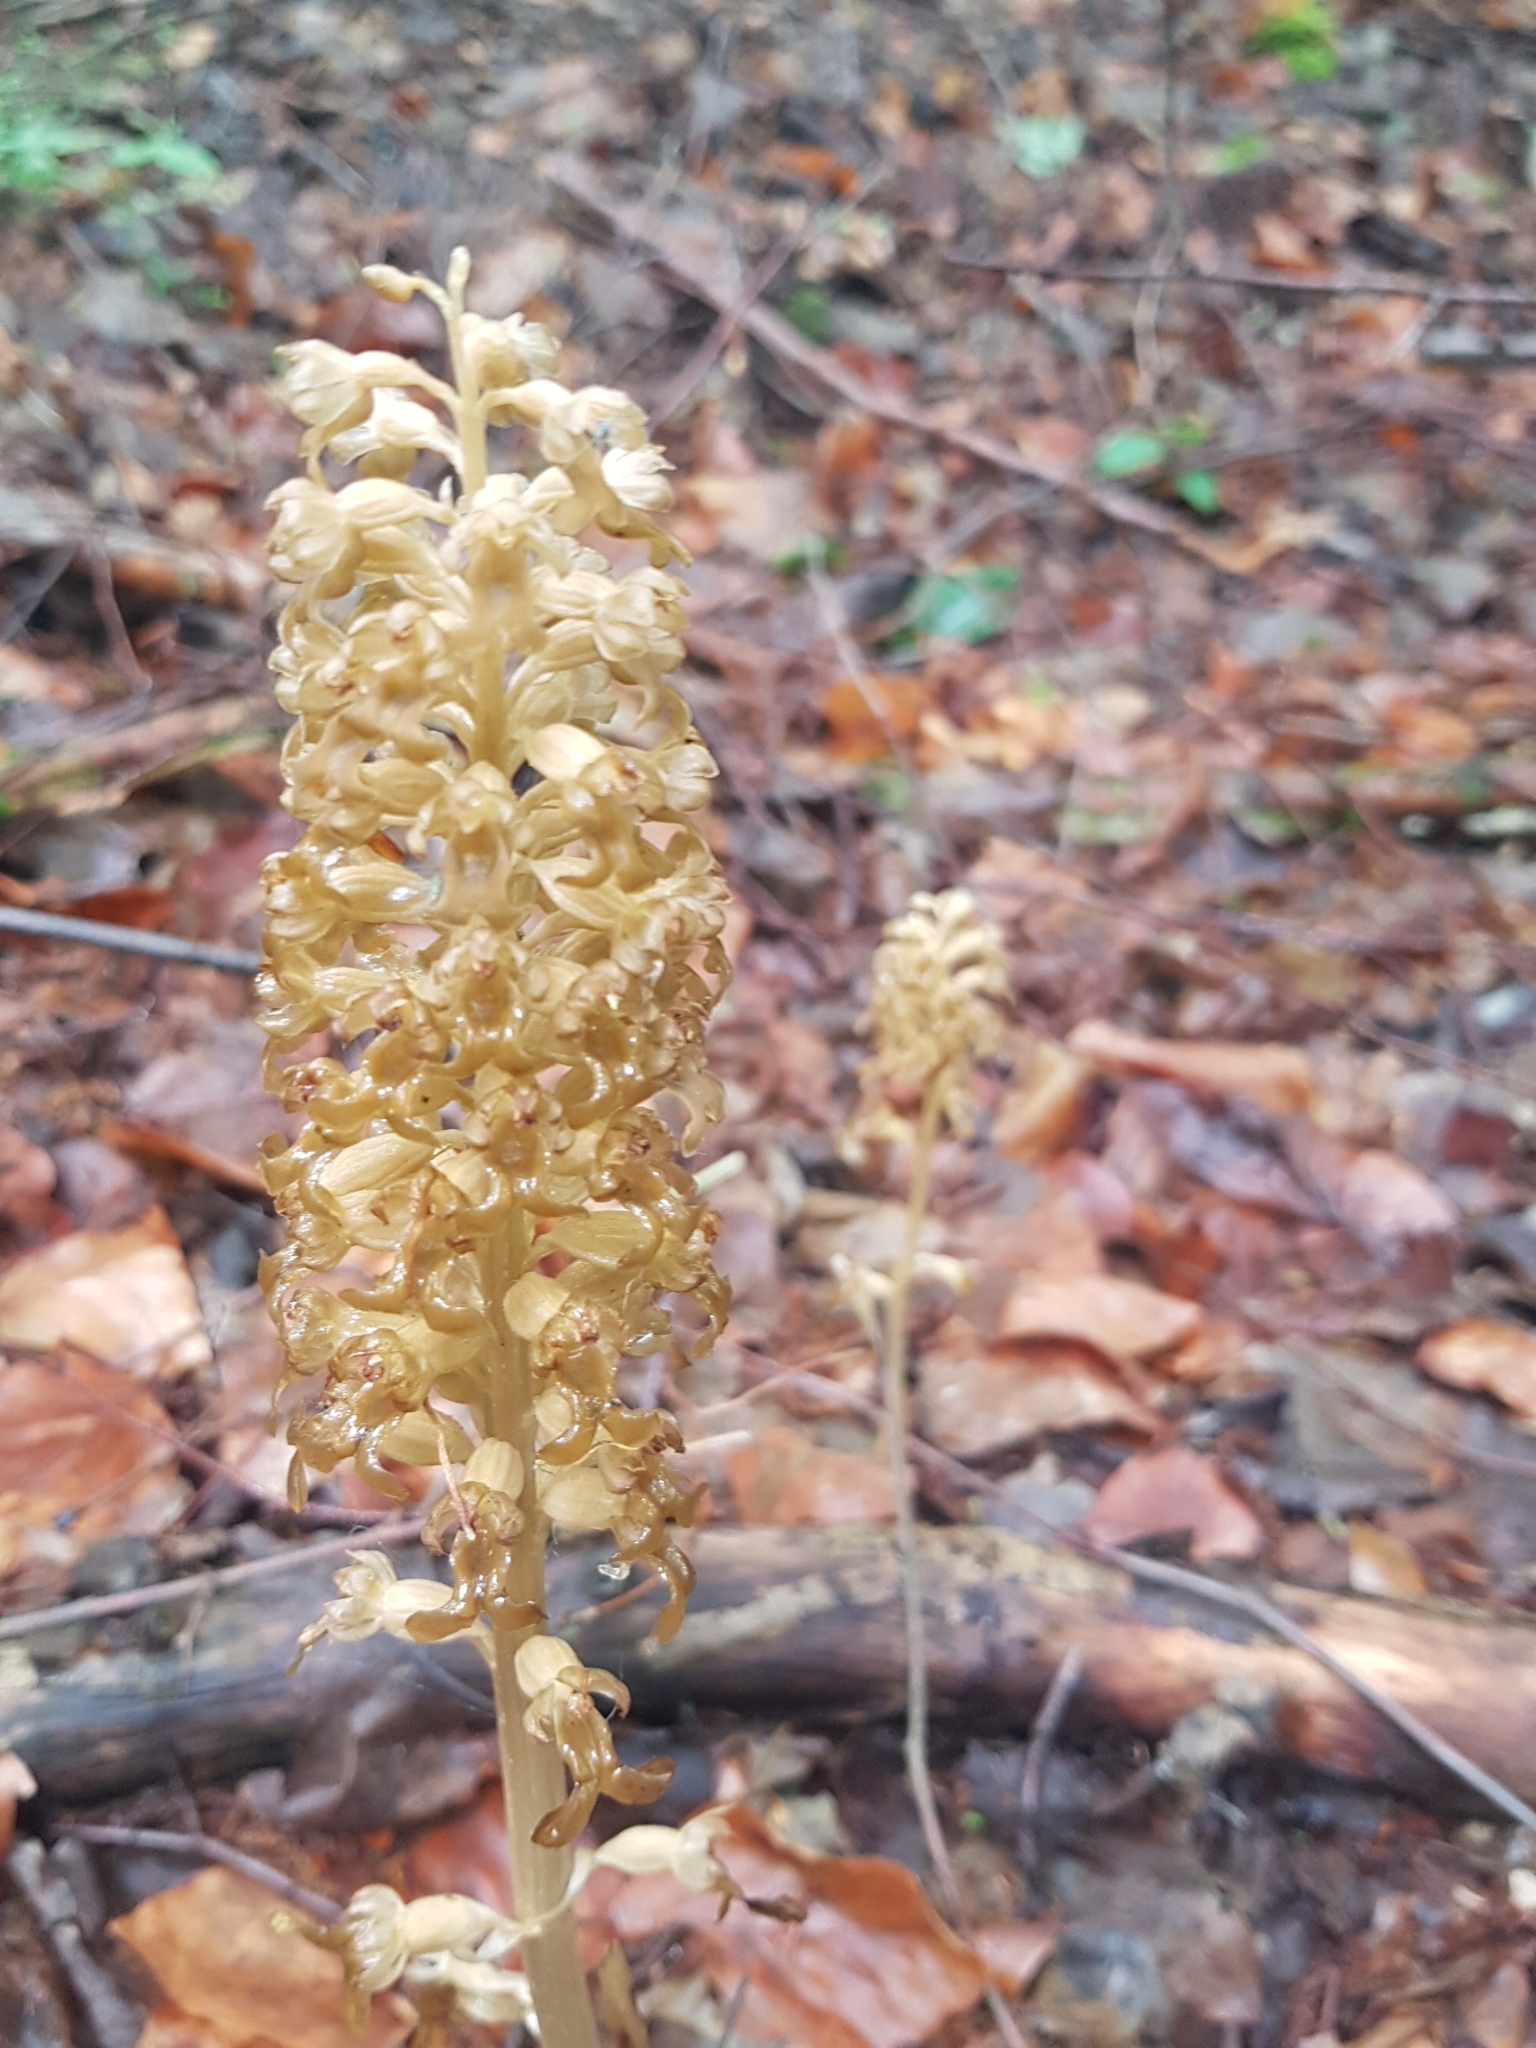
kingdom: Plantae
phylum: Tracheophyta
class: Liliopsida
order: Asparagales
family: Orchidaceae
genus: Neottia
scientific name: Neottia nidus-avis
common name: Bird's-nest orchid
